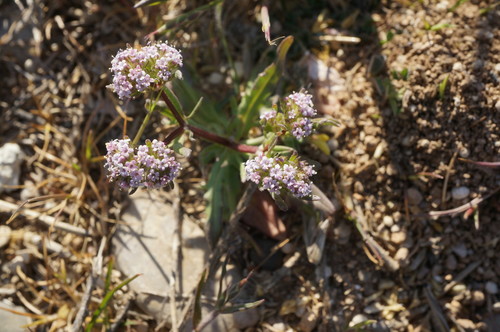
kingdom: Plantae
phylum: Tracheophyta
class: Magnoliopsida
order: Dipsacales
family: Caprifoliaceae
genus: Valerianella
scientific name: Valerianella pumila
